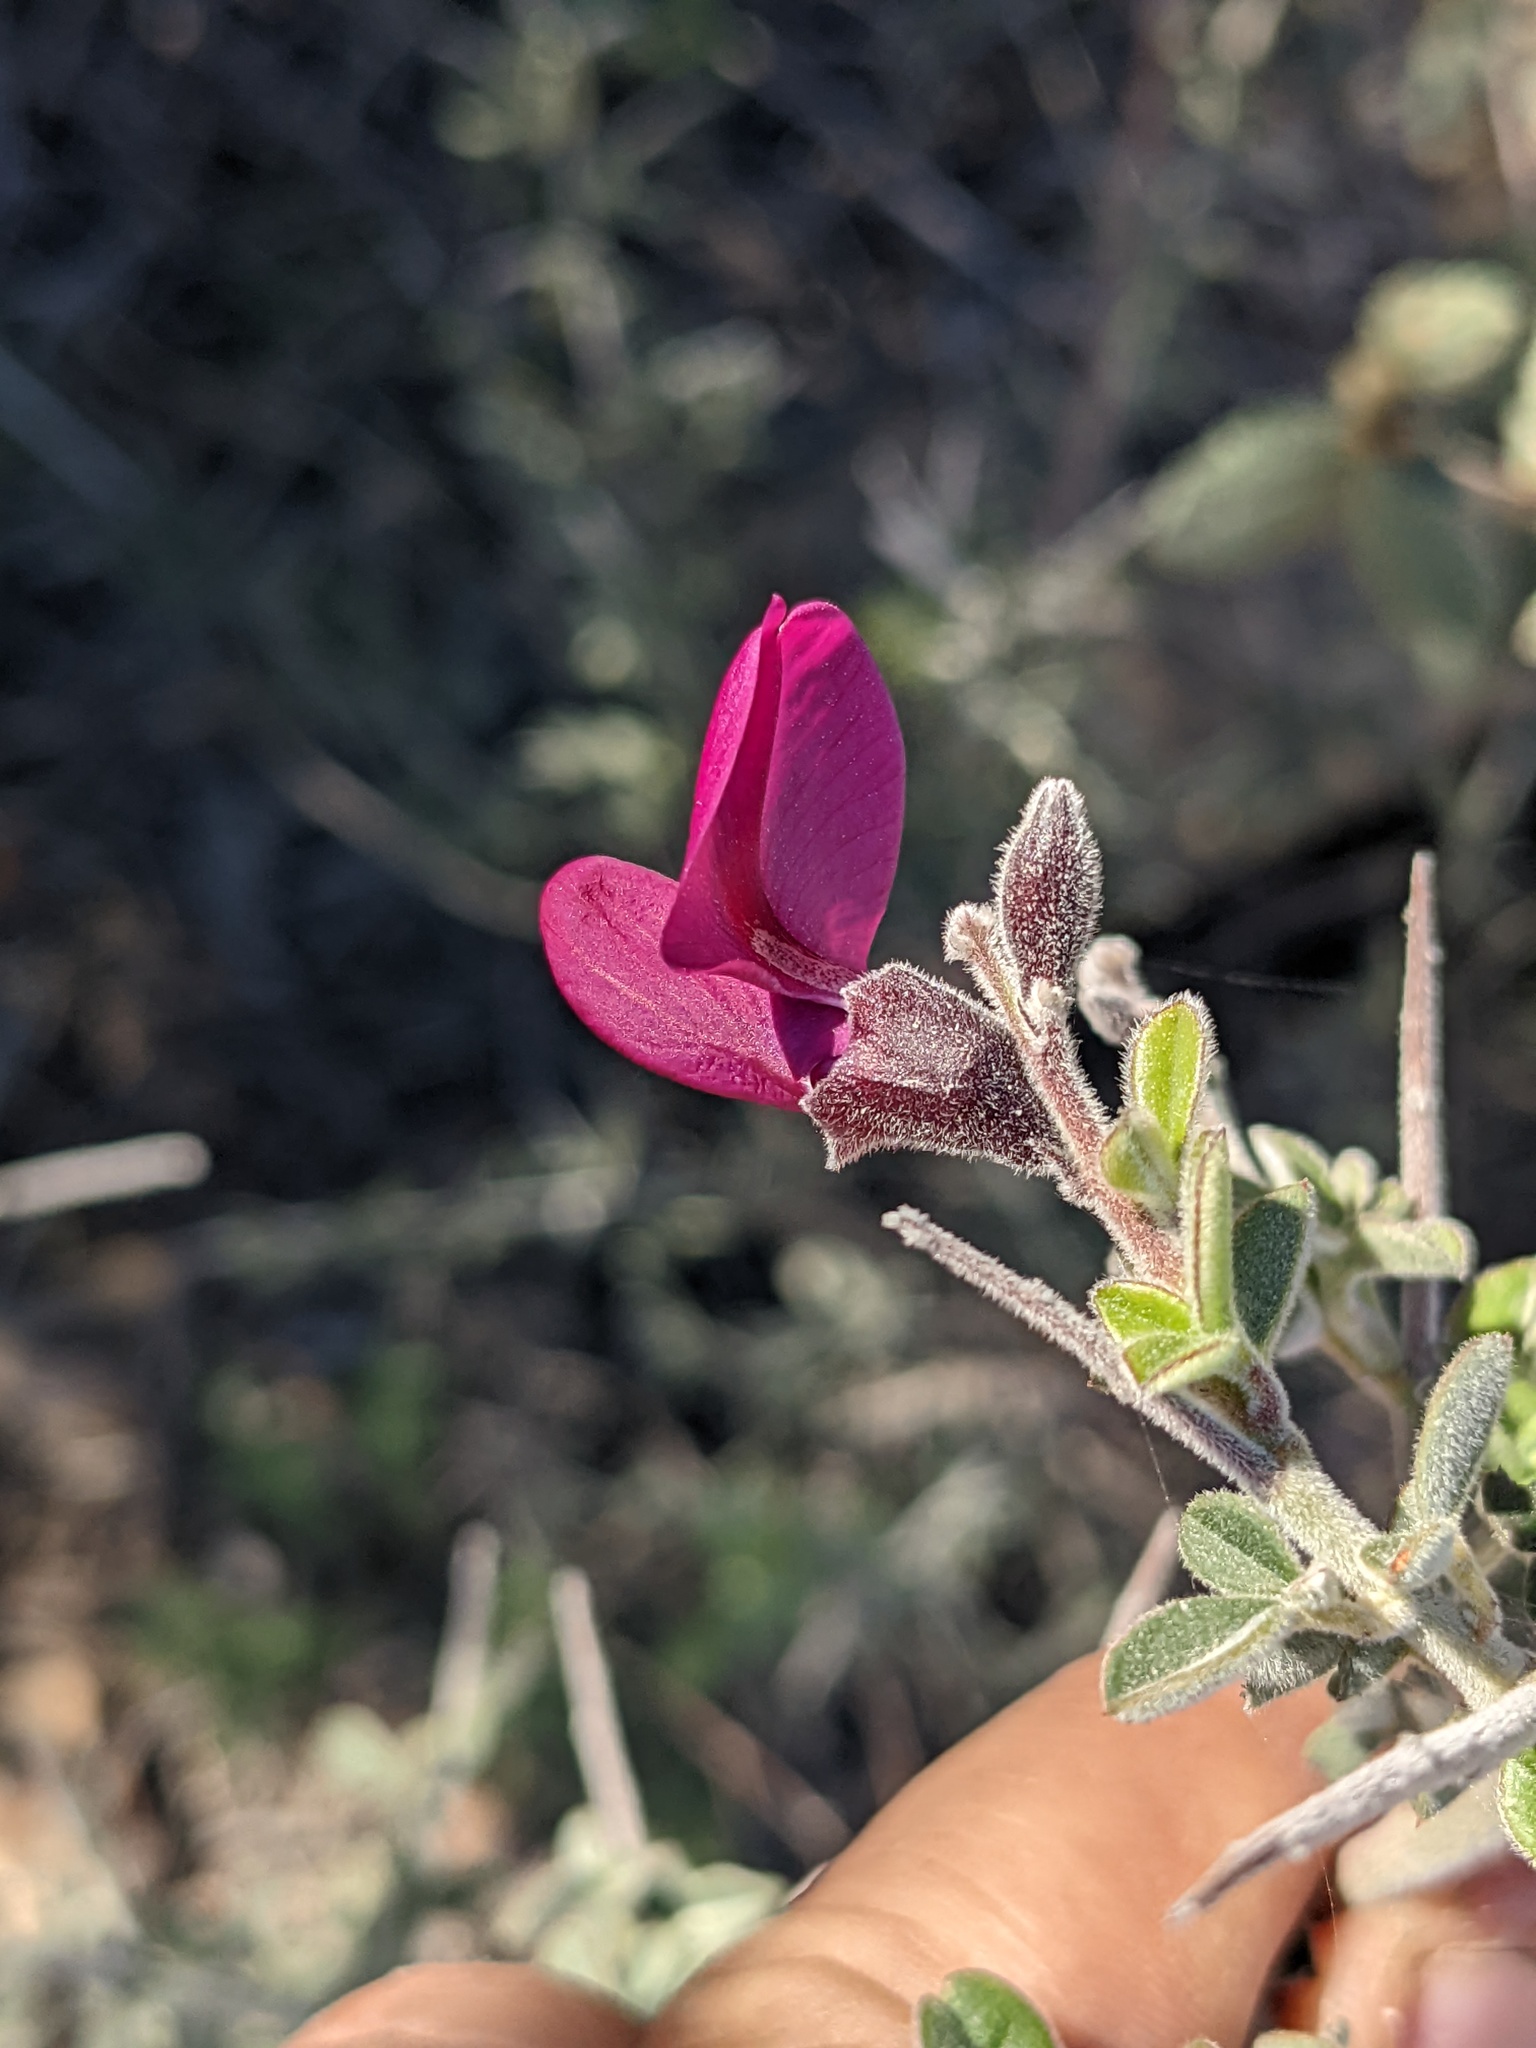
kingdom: Plantae
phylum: Tracheophyta
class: Magnoliopsida
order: Fabales
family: Fabaceae
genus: Pickeringia
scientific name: Pickeringia montana
